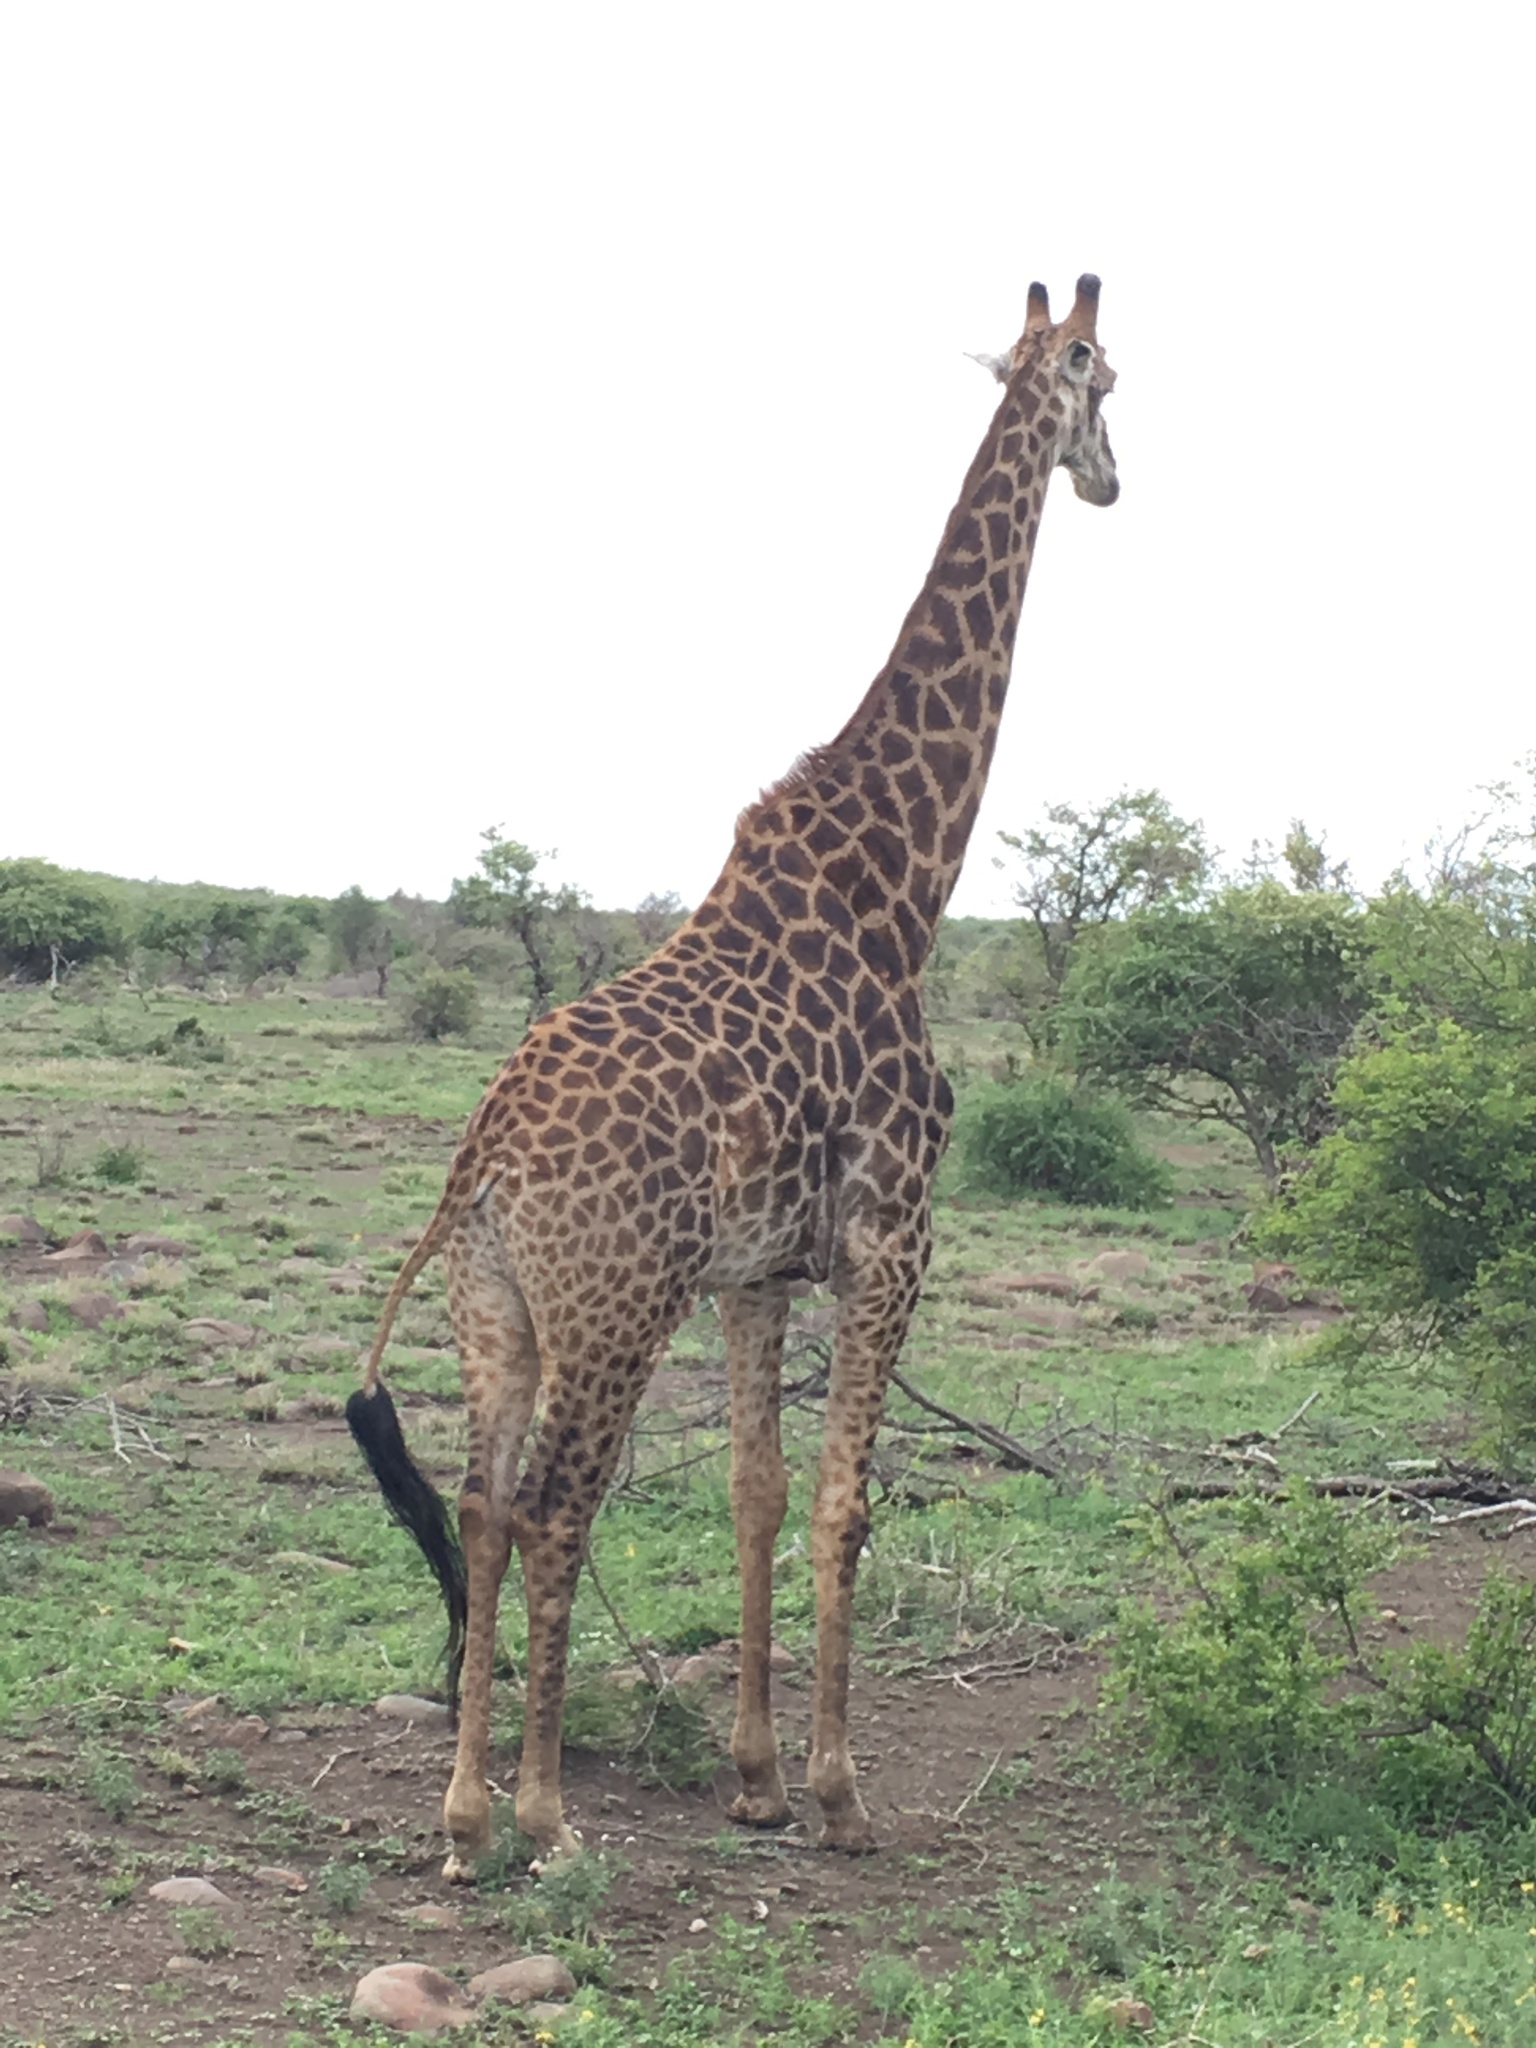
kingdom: Animalia
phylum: Chordata
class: Mammalia
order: Artiodactyla
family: Giraffidae
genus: Giraffa
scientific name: Giraffa giraffa
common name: Southern giraffe
